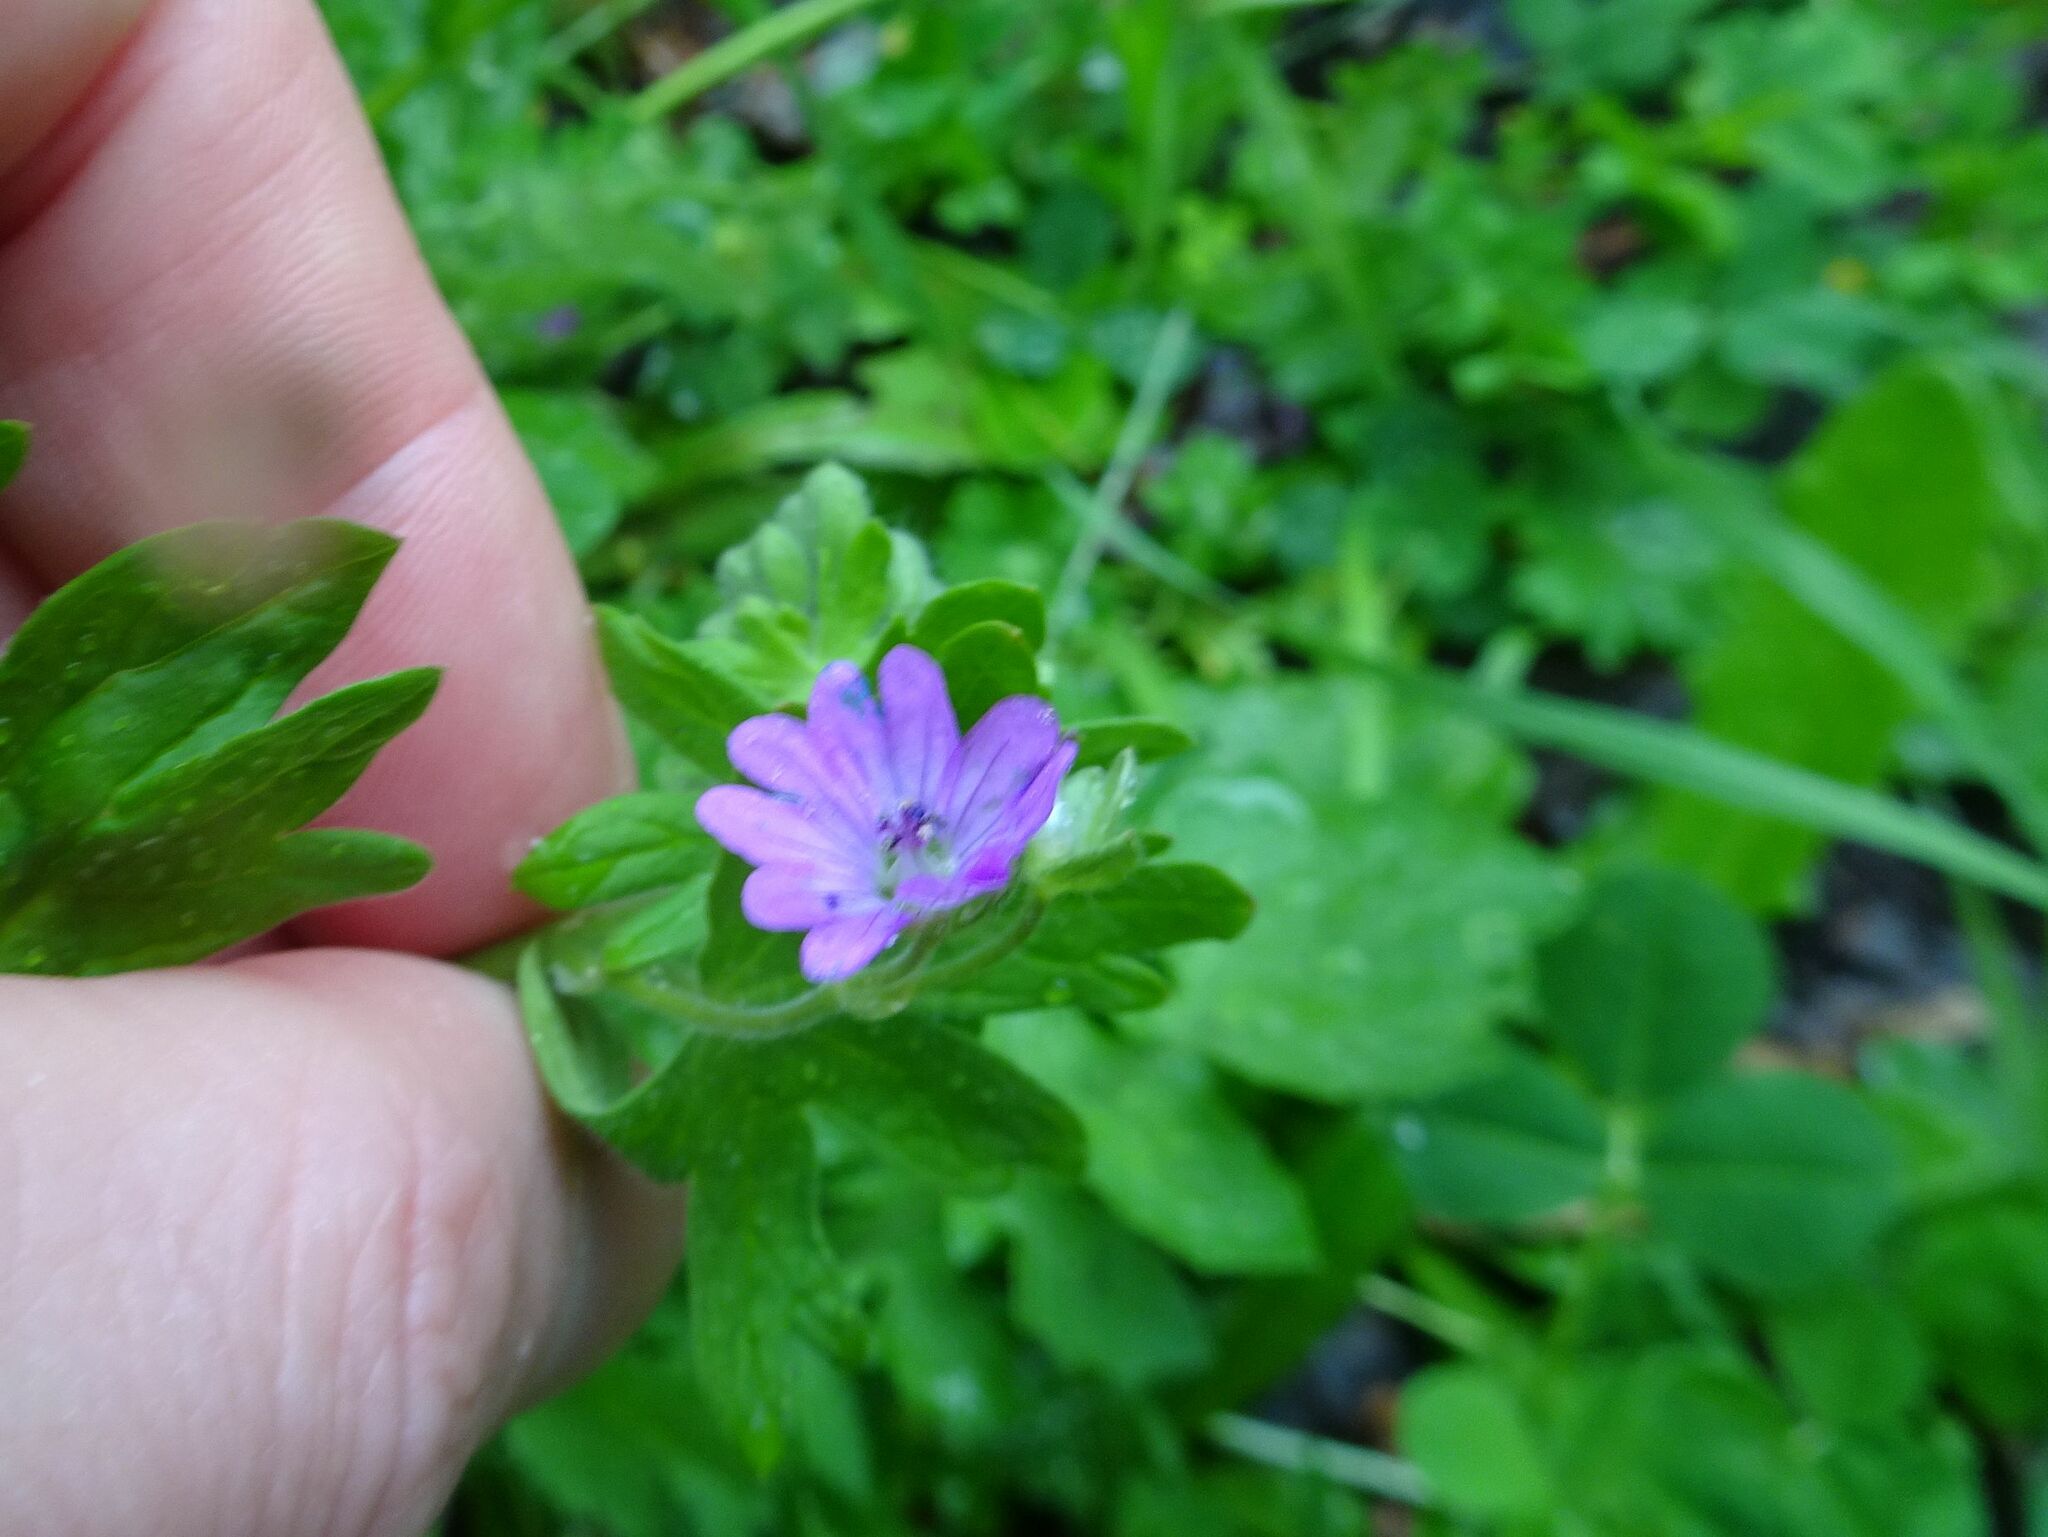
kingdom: Plantae
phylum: Tracheophyta
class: Magnoliopsida
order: Geraniales
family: Geraniaceae
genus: Geranium
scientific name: Geranium molle
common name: Dove's-foot crane's-bill
